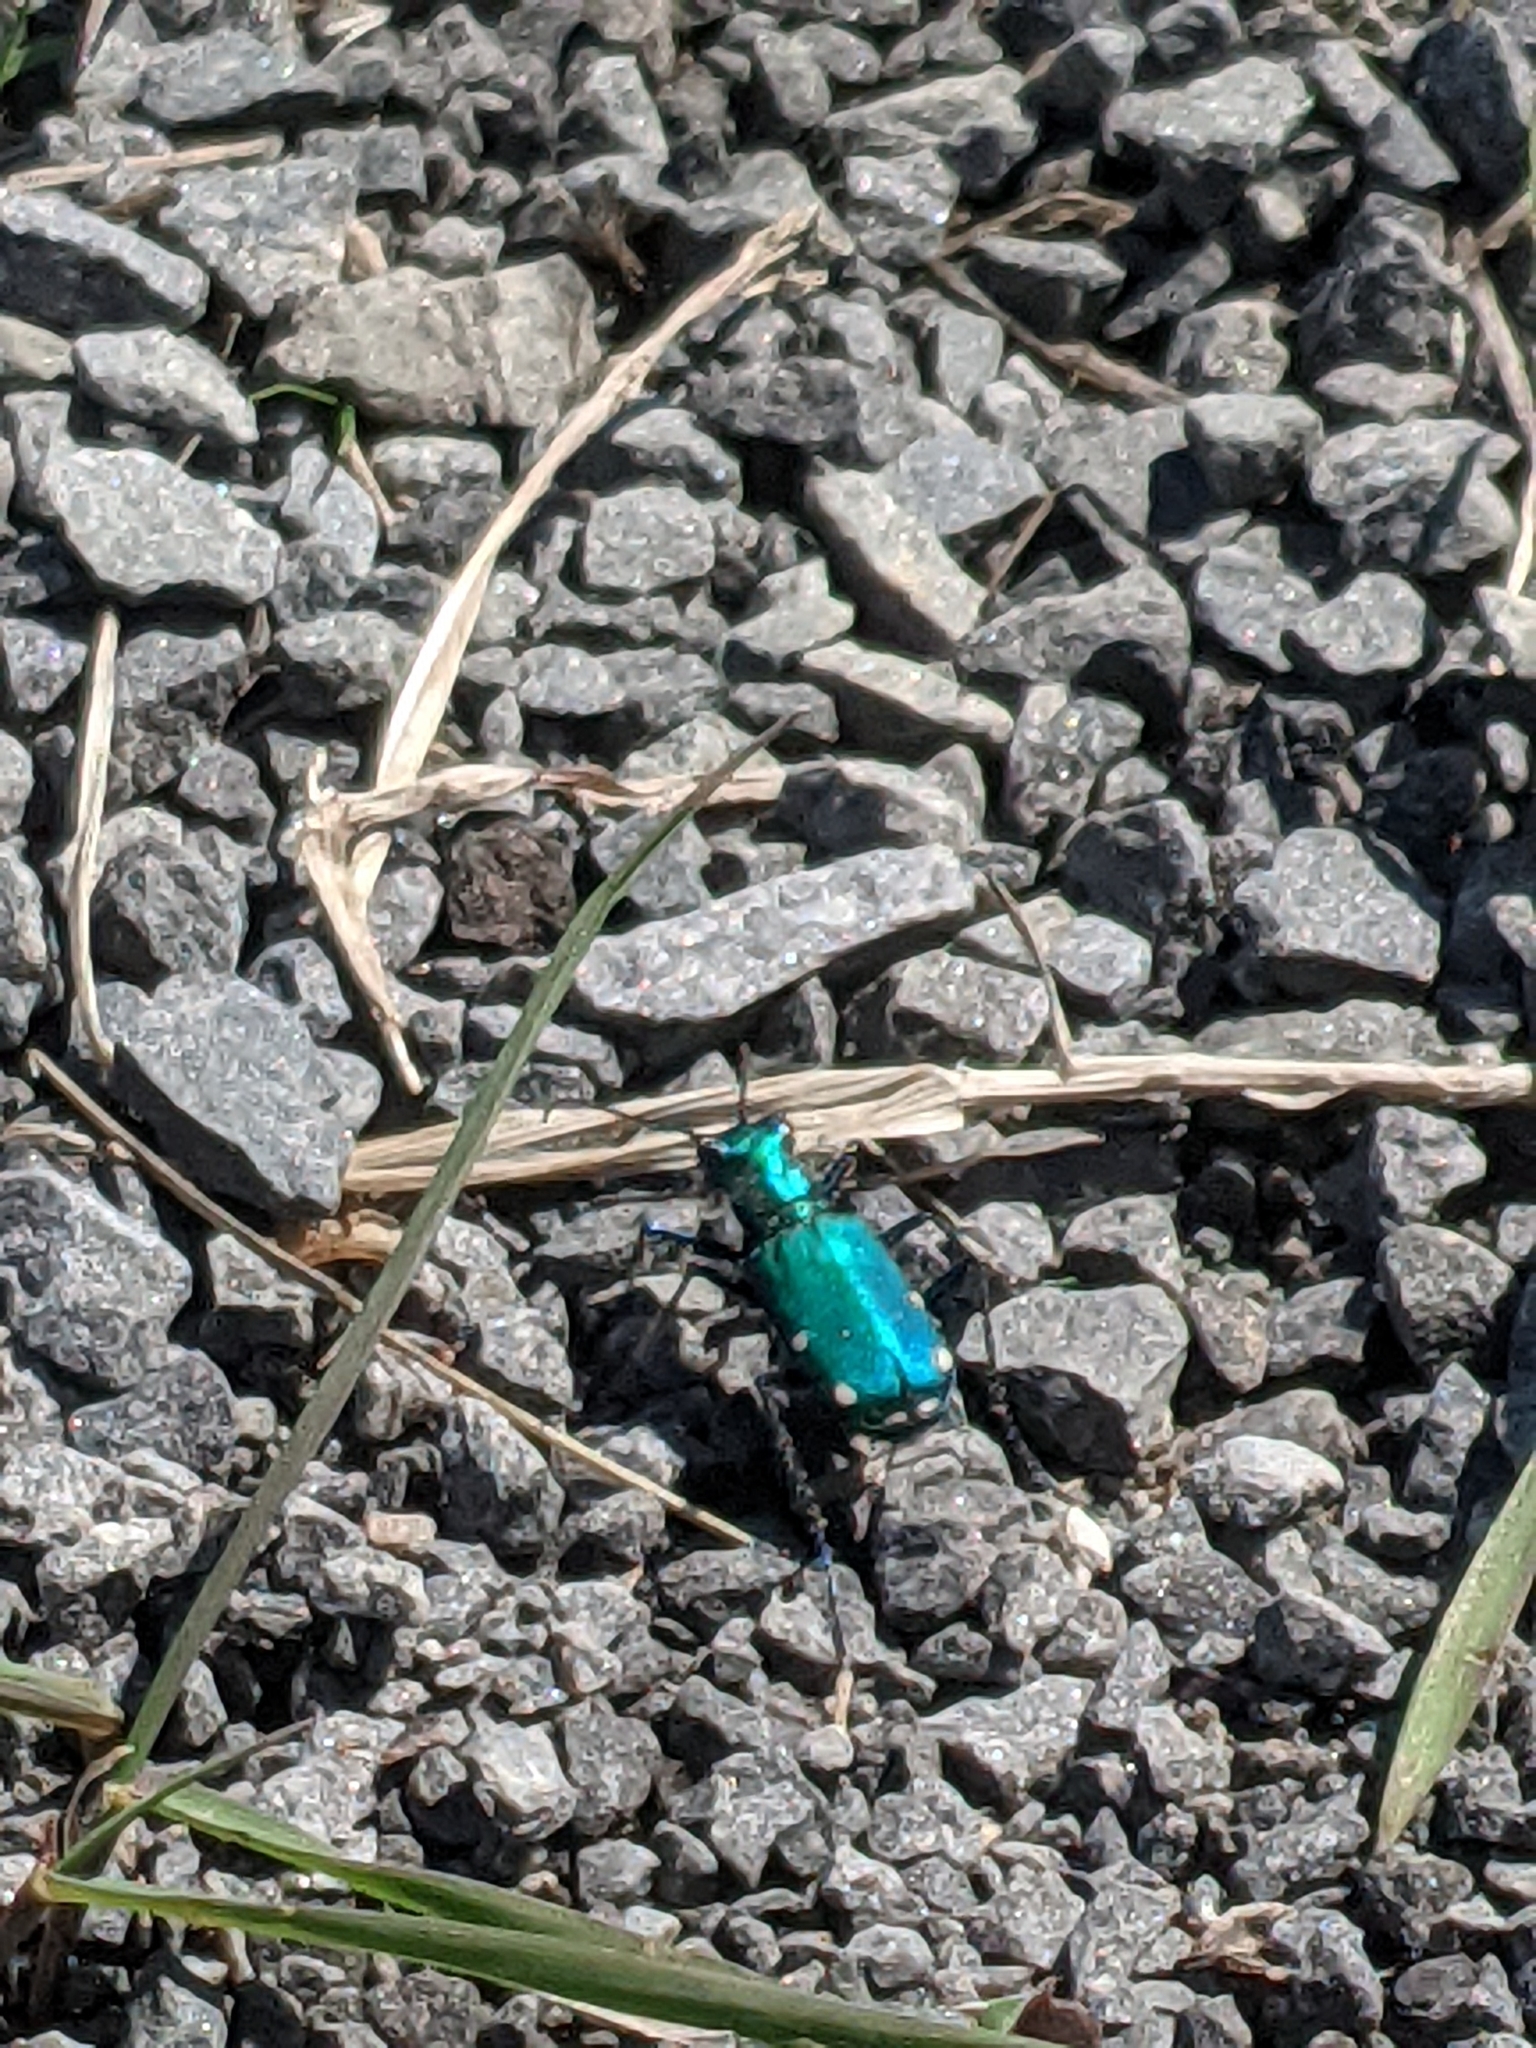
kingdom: Animalia
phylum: Arthropoda
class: Insecta
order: Coleoptera
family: Carabidae
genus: Cicindela
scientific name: Cicindela sexguttata
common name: Six-spotted tiger beetle
